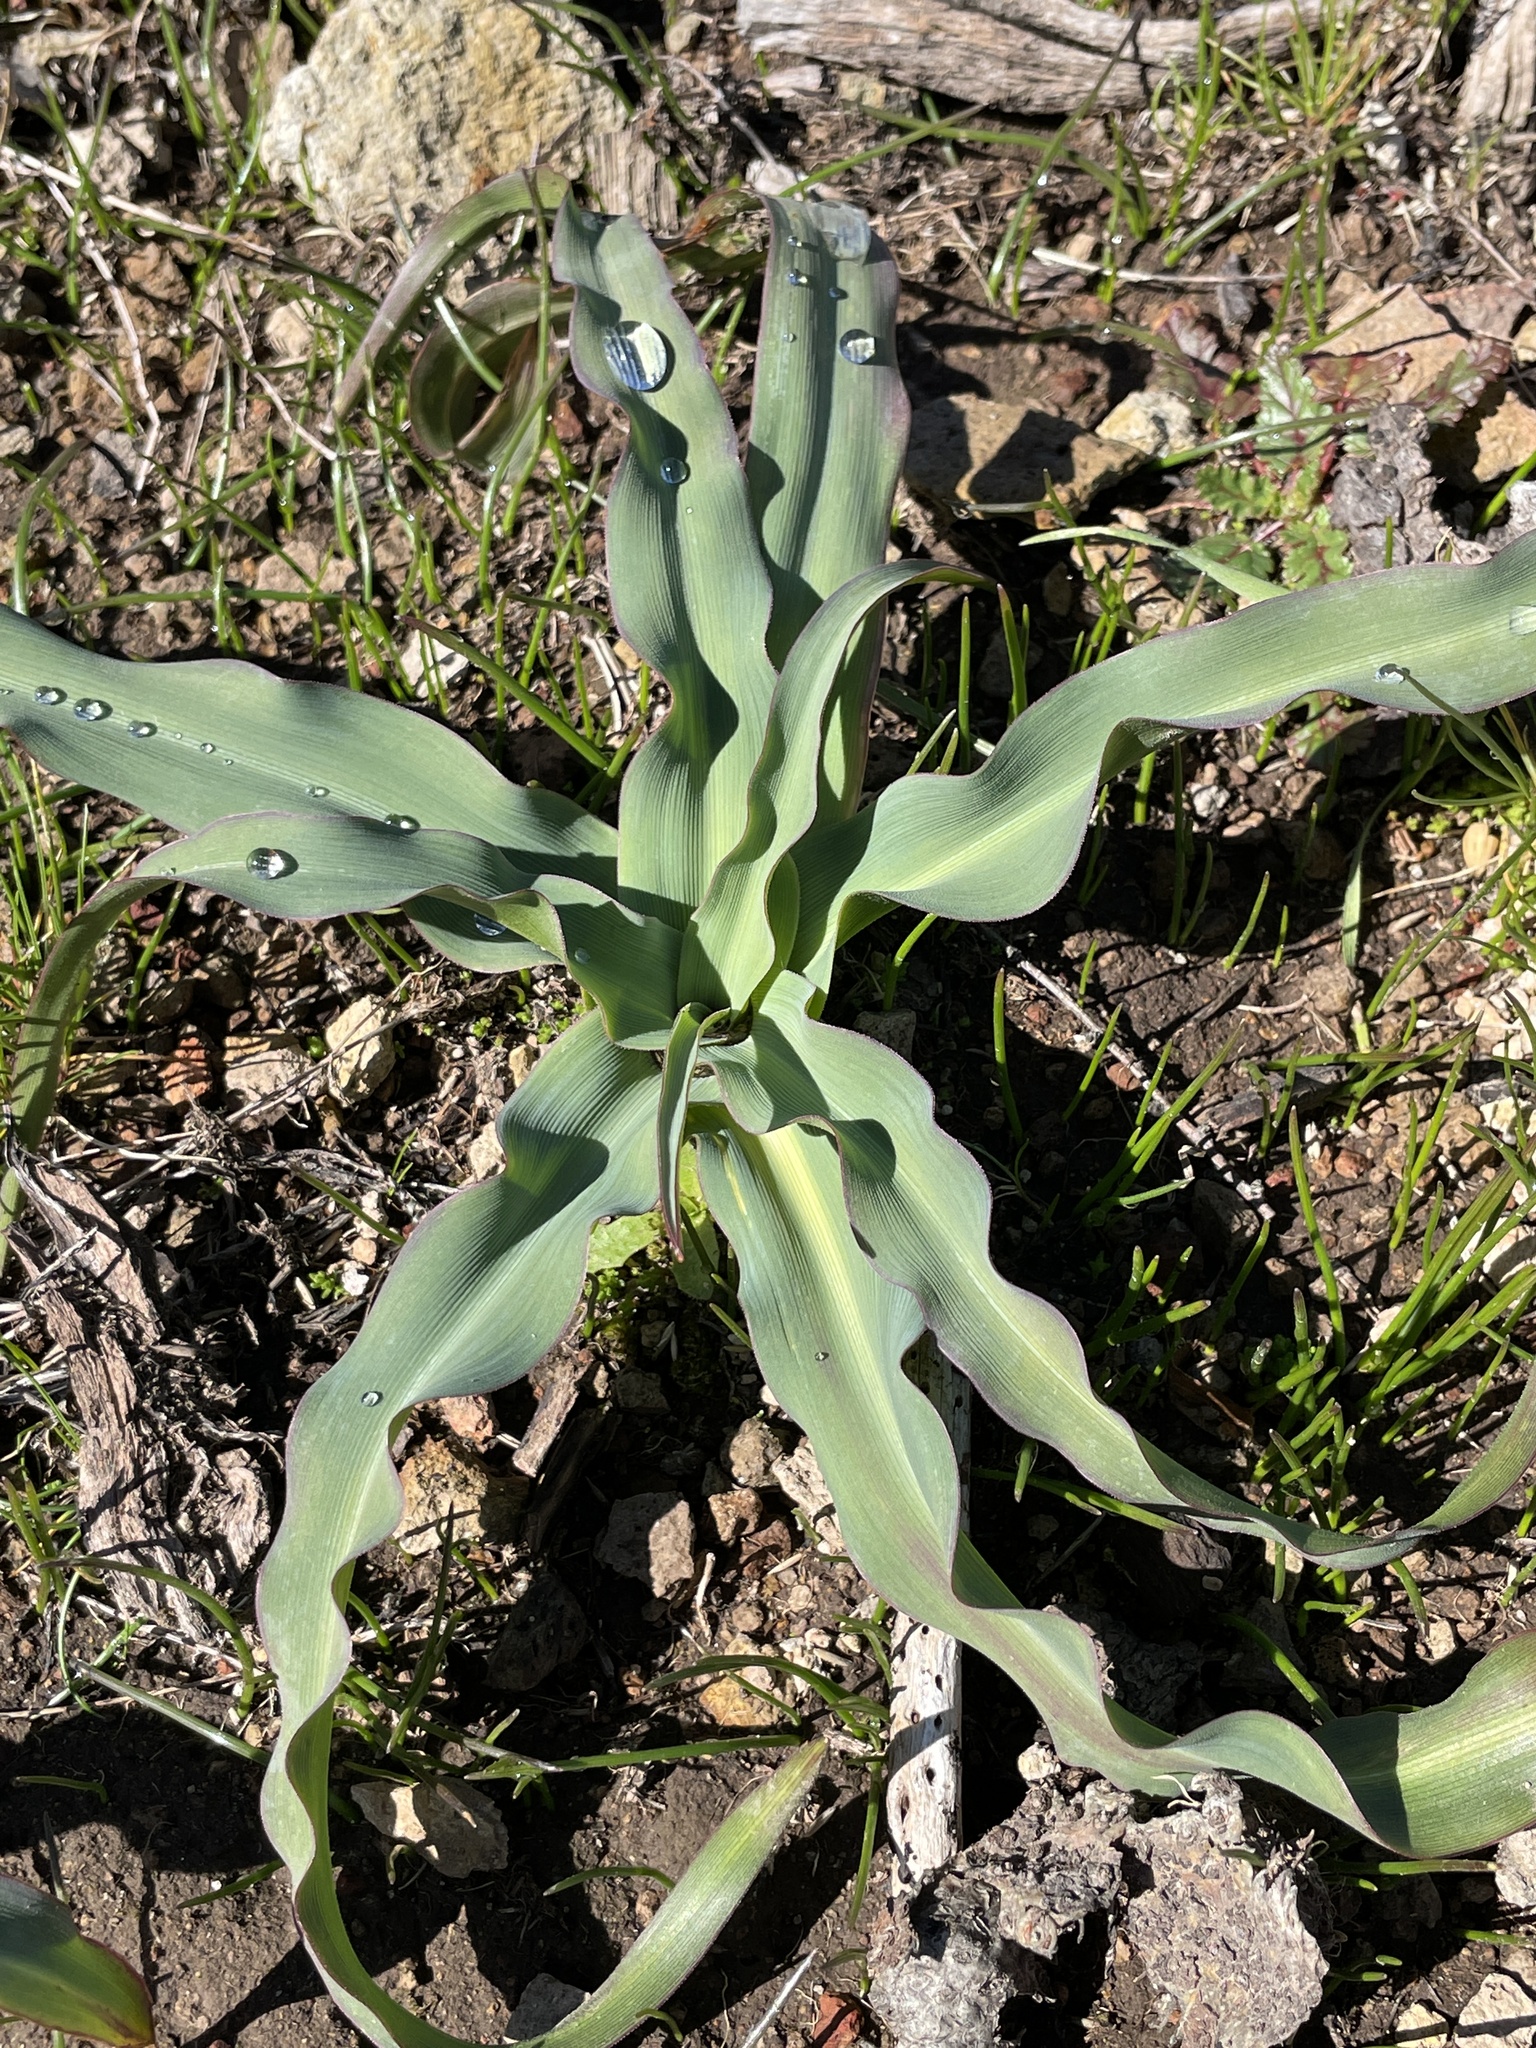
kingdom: Plantae
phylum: Tracheophyta
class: Liliopsida
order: Asparagales
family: Asparagaceae
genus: Chlorogalum
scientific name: Chlorogalum pomeridianum
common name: Amole
